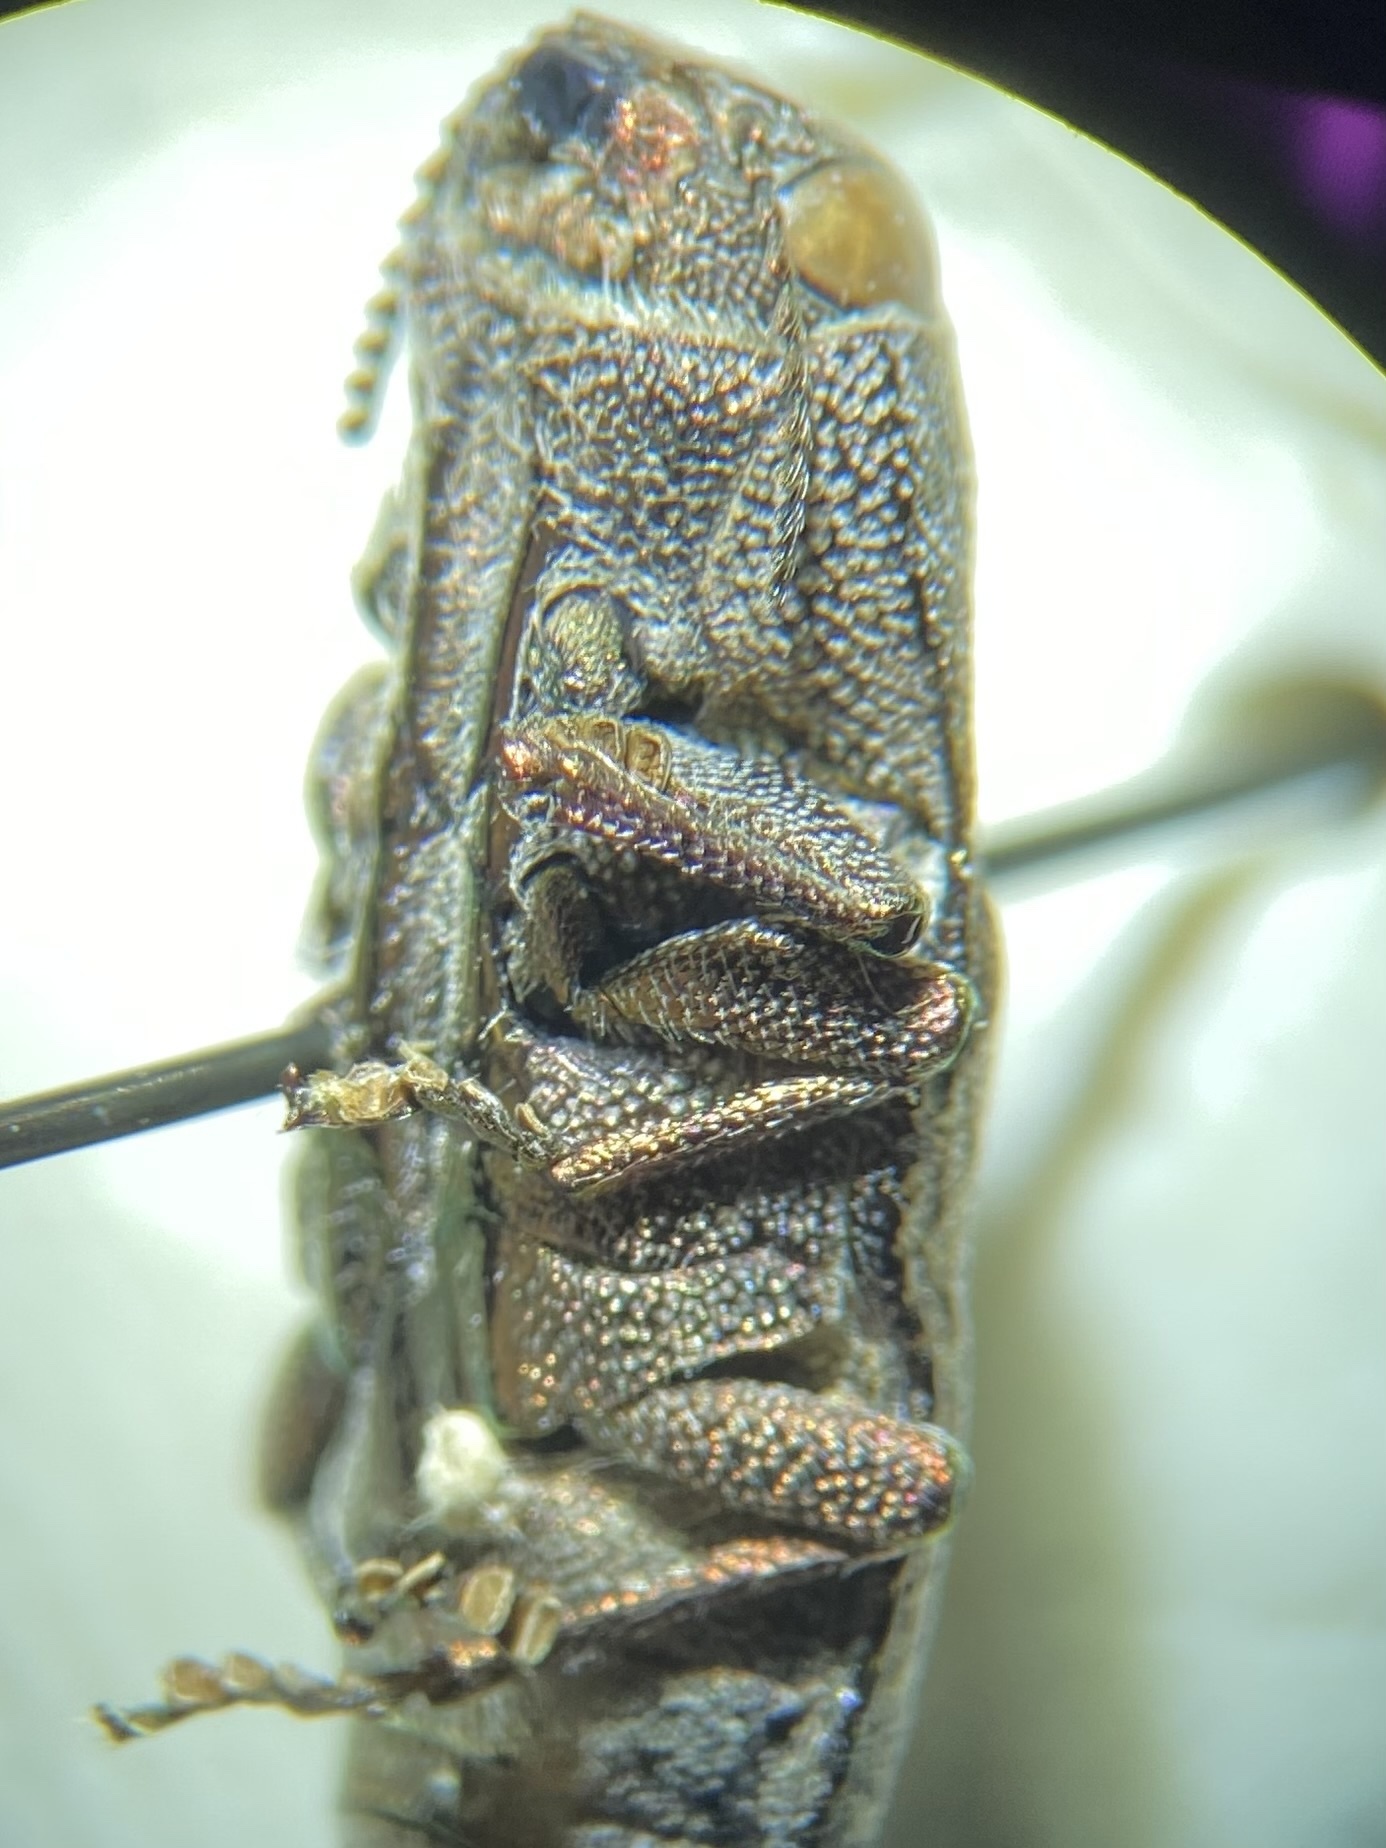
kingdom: Animalia
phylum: Arthropoda
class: Insecta
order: Coleoptera
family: Buprestidae
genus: Dicerca
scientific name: Dicerca lurida
